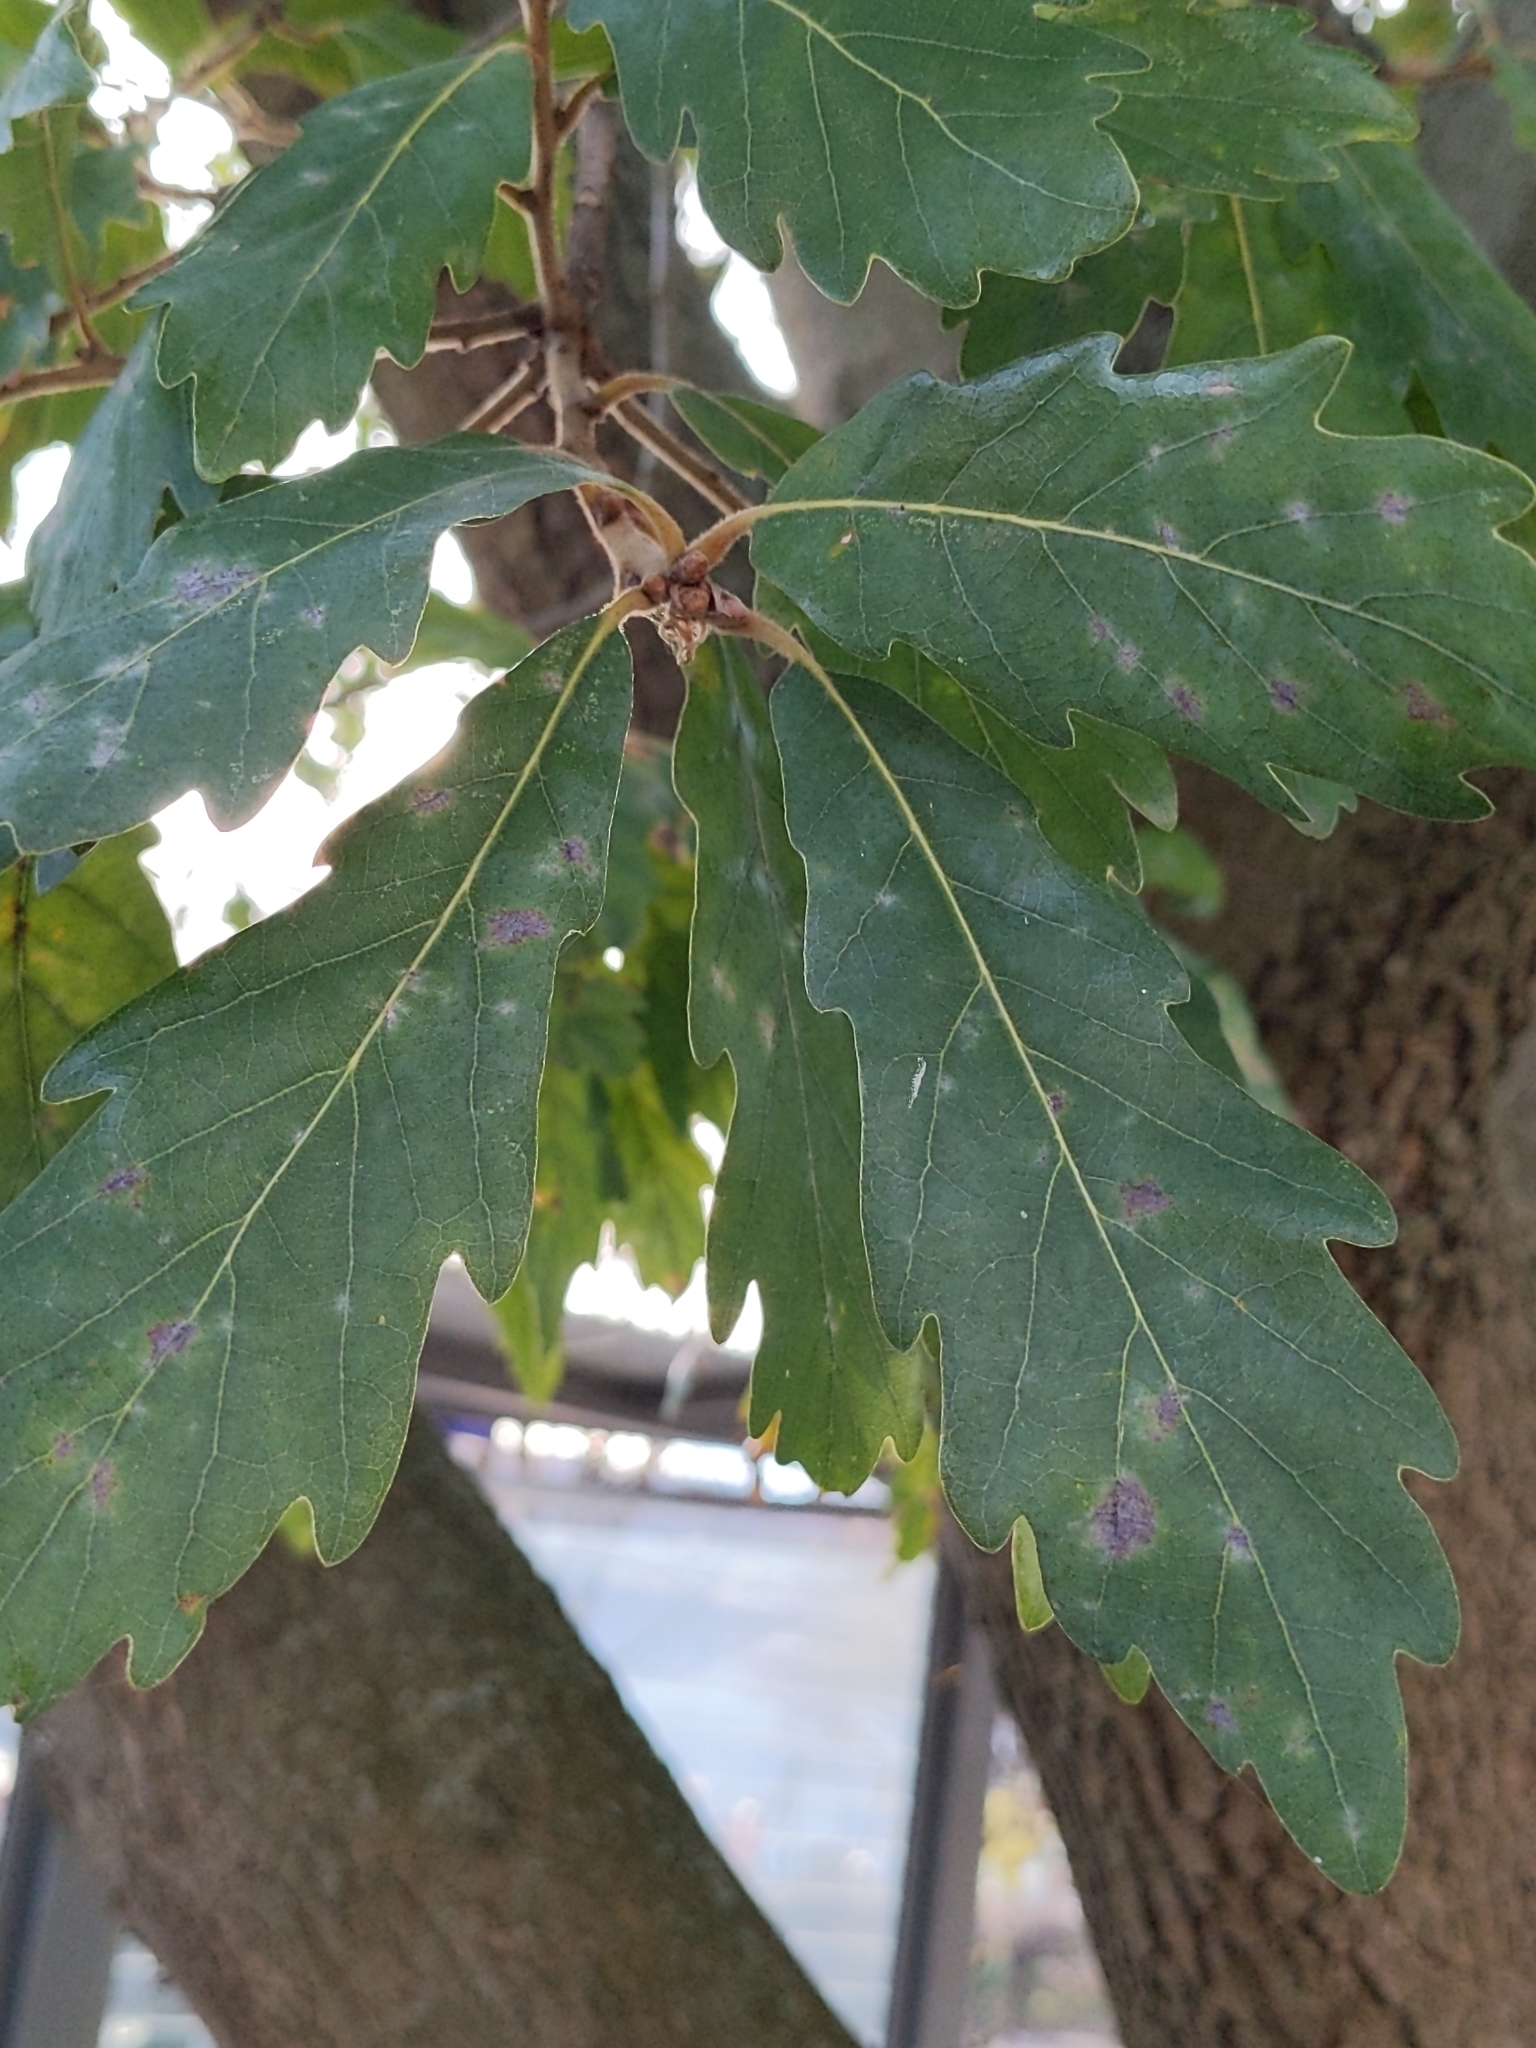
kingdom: Plantae
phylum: Tracheophyta
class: Magnoliopsida
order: Fagales
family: Fagaceae
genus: Quercus
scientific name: Quercus pubescens
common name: Downy oak
